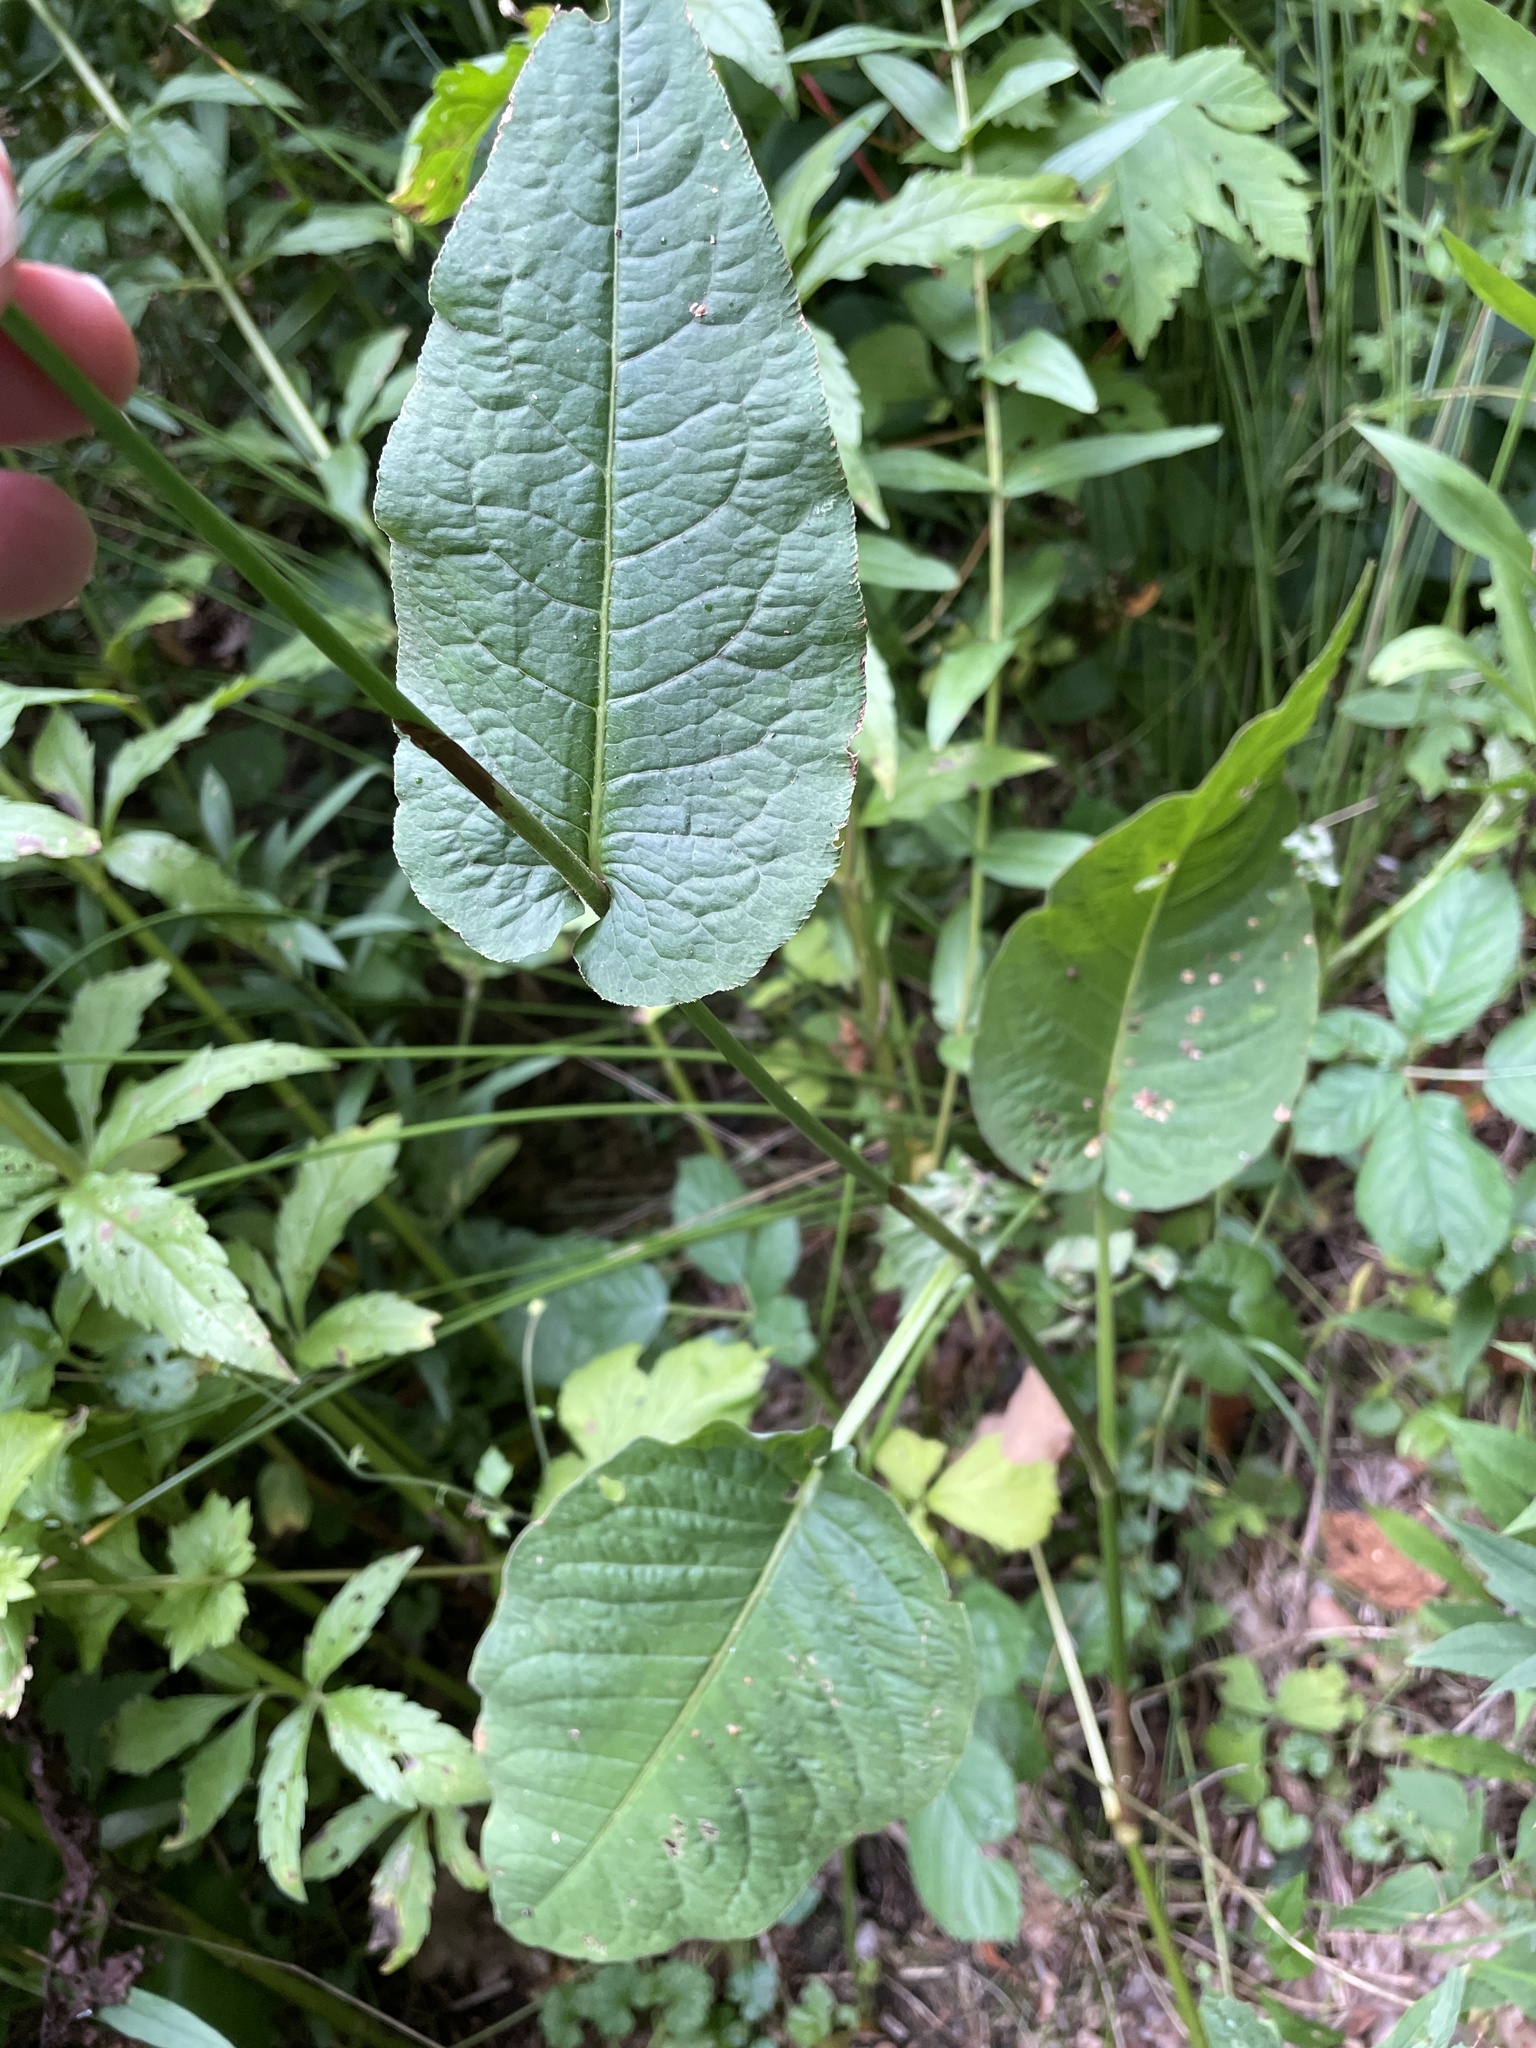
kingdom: Plantae
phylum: Tracheophyta
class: Magnoliopsida
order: Caryophyllales
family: Polygonaceae
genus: Bistorta
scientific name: Bistorta amplexicaulis
